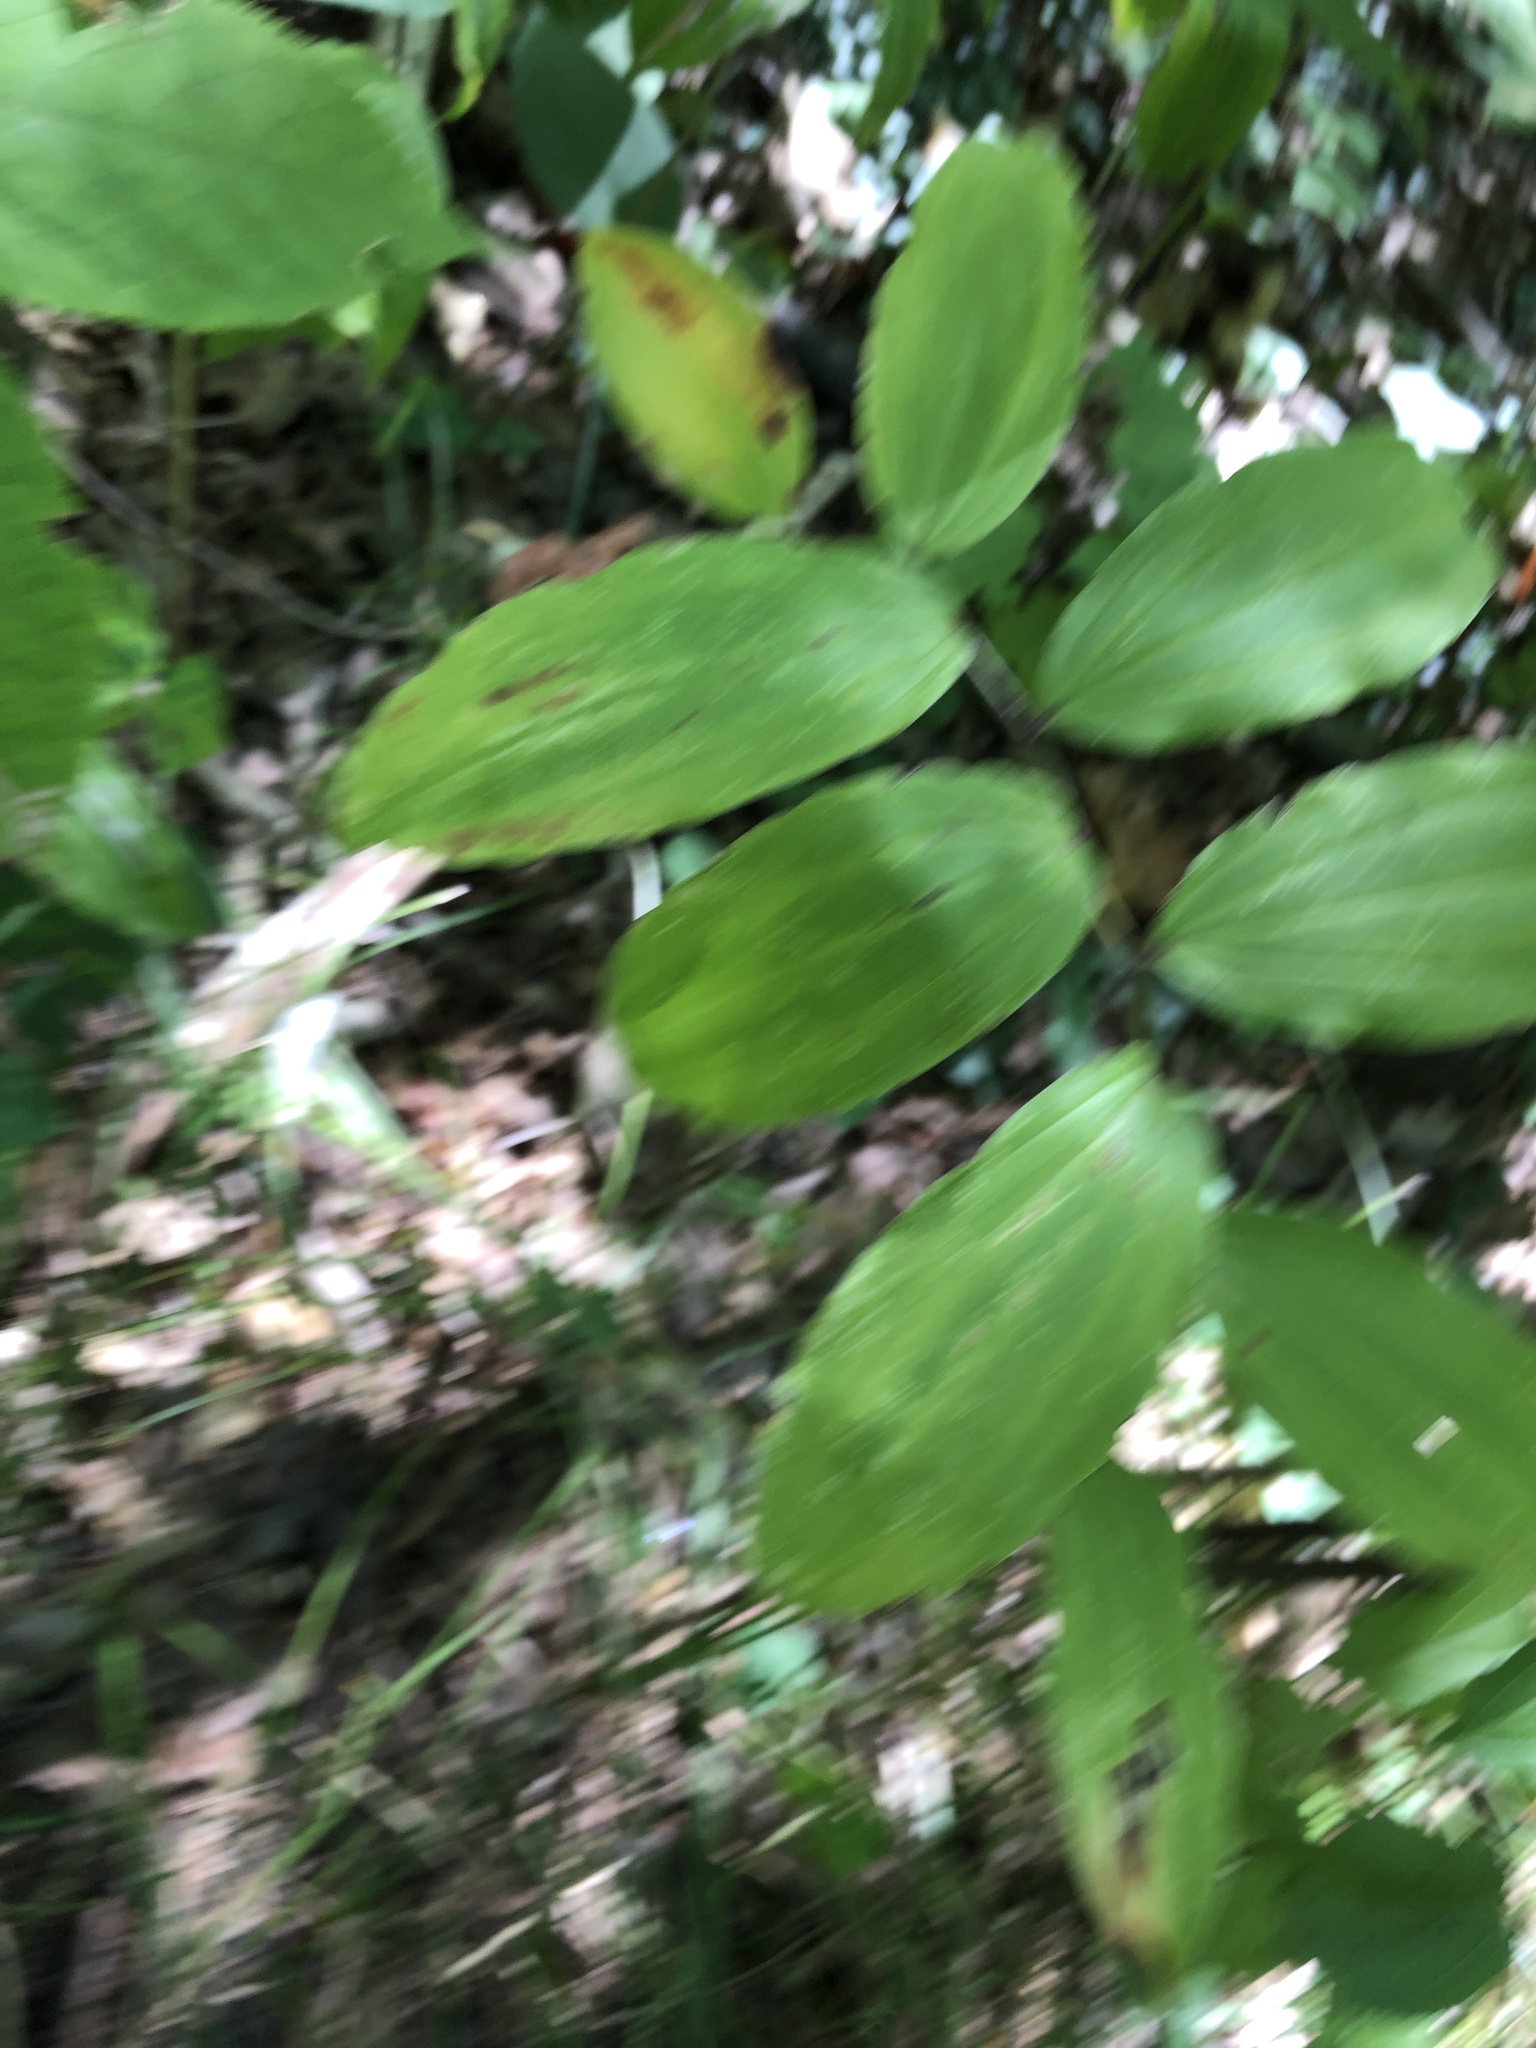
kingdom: Plantae
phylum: Tracheophyta
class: Liliopsida
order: Asparagales
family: Asparagaceae
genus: Maianthemum
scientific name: Maianthemum racemosum
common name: False spikenard
